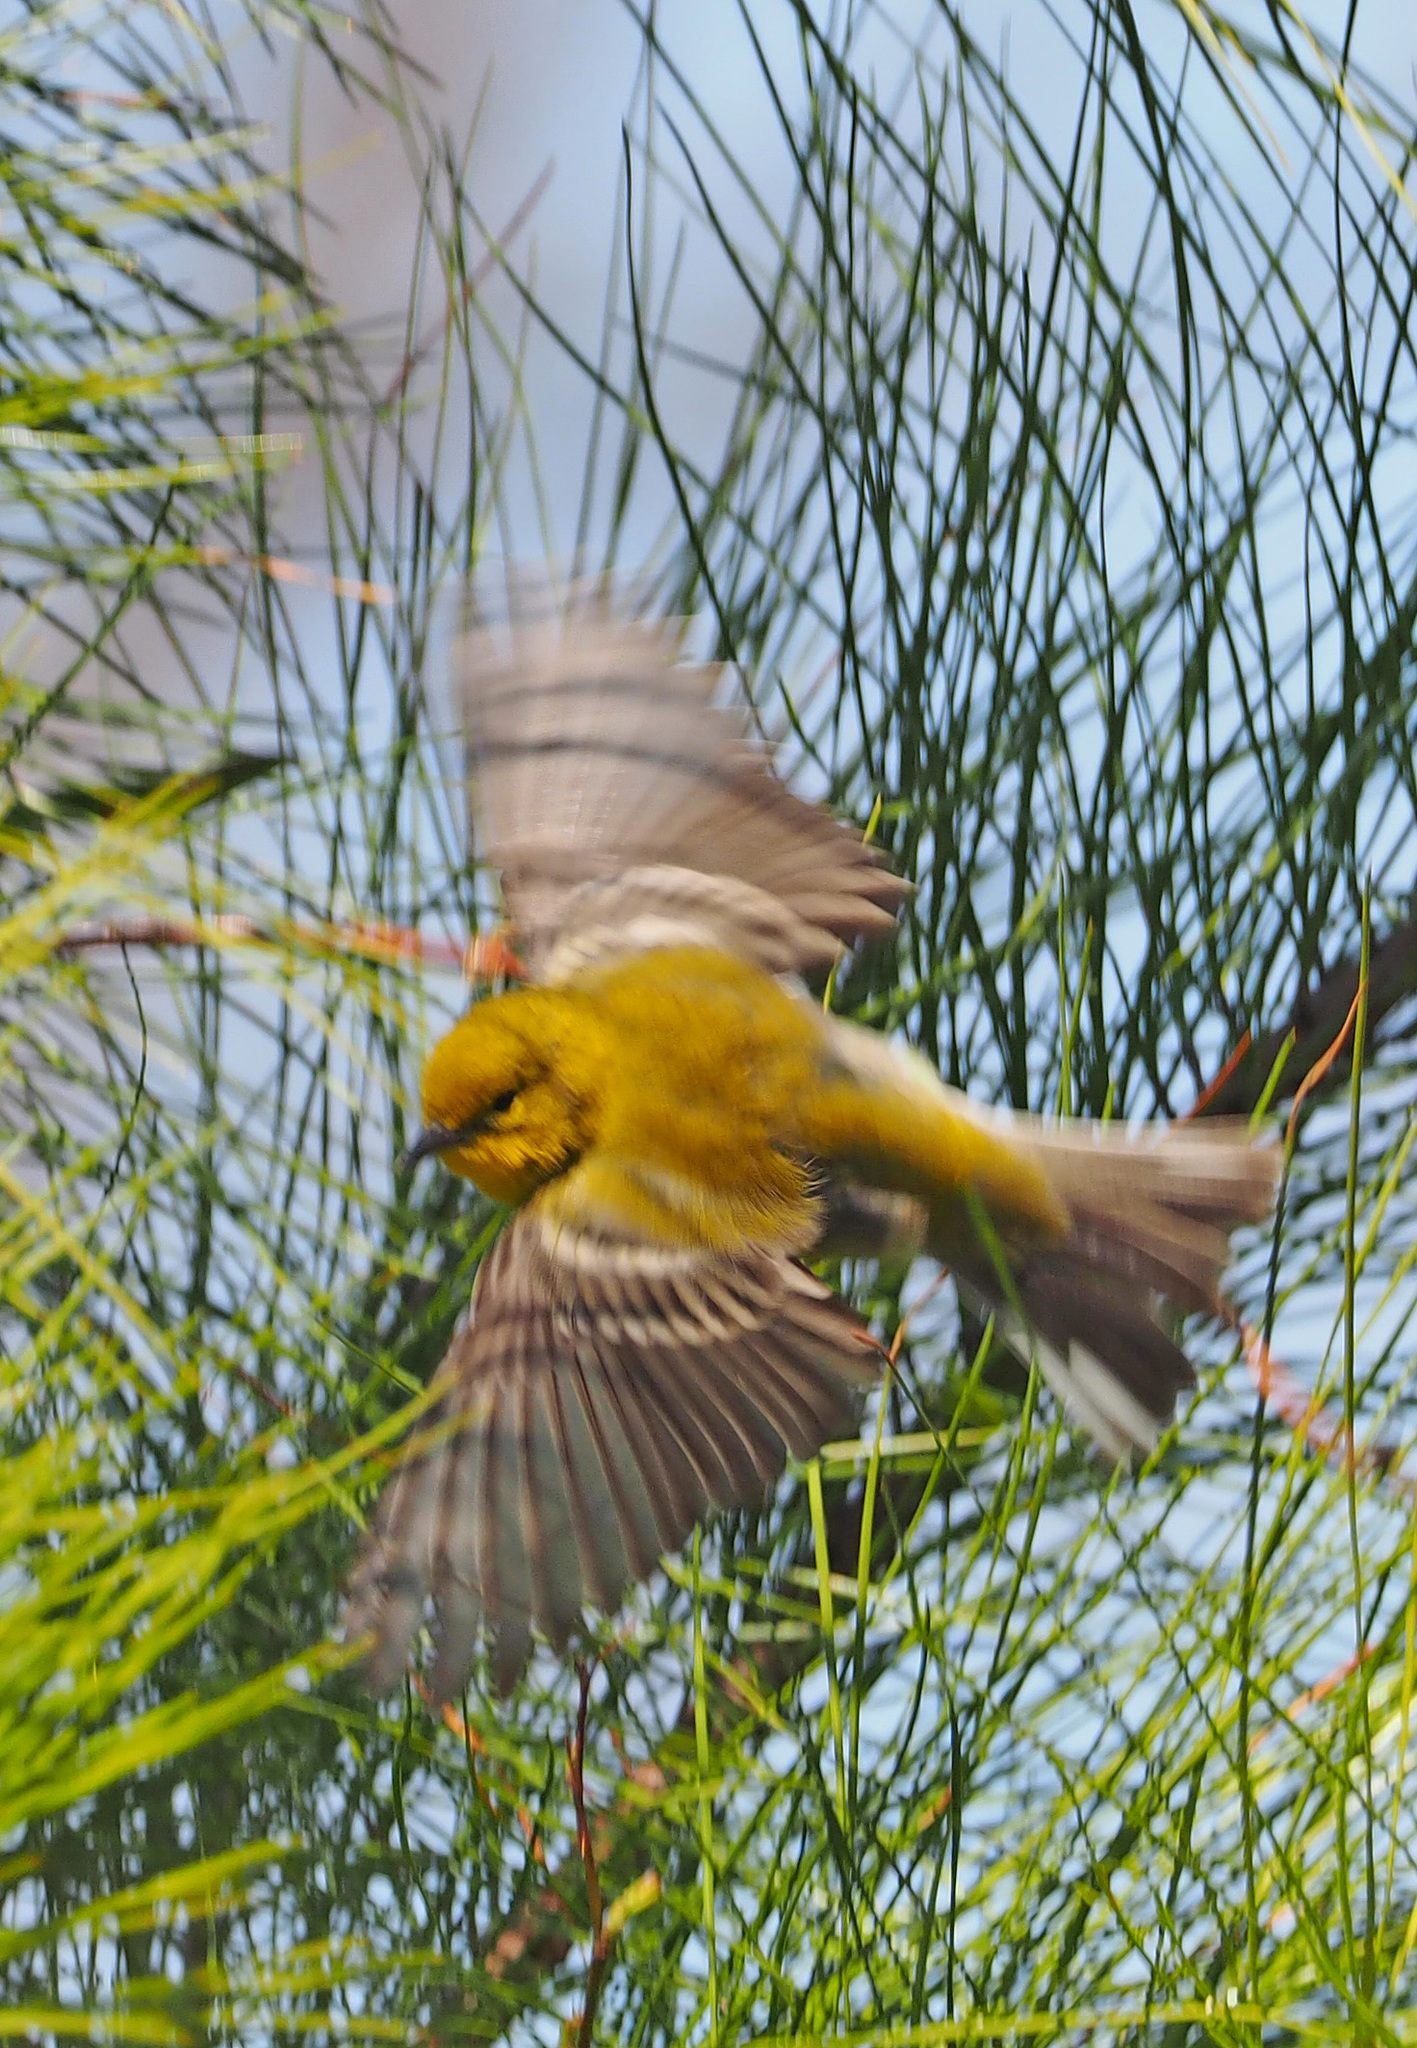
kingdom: Animalia
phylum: Chordata
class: Aves
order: Passeriformes
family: Parulidae
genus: Setophaga
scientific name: Setophaga pinus
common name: Pine warbler
